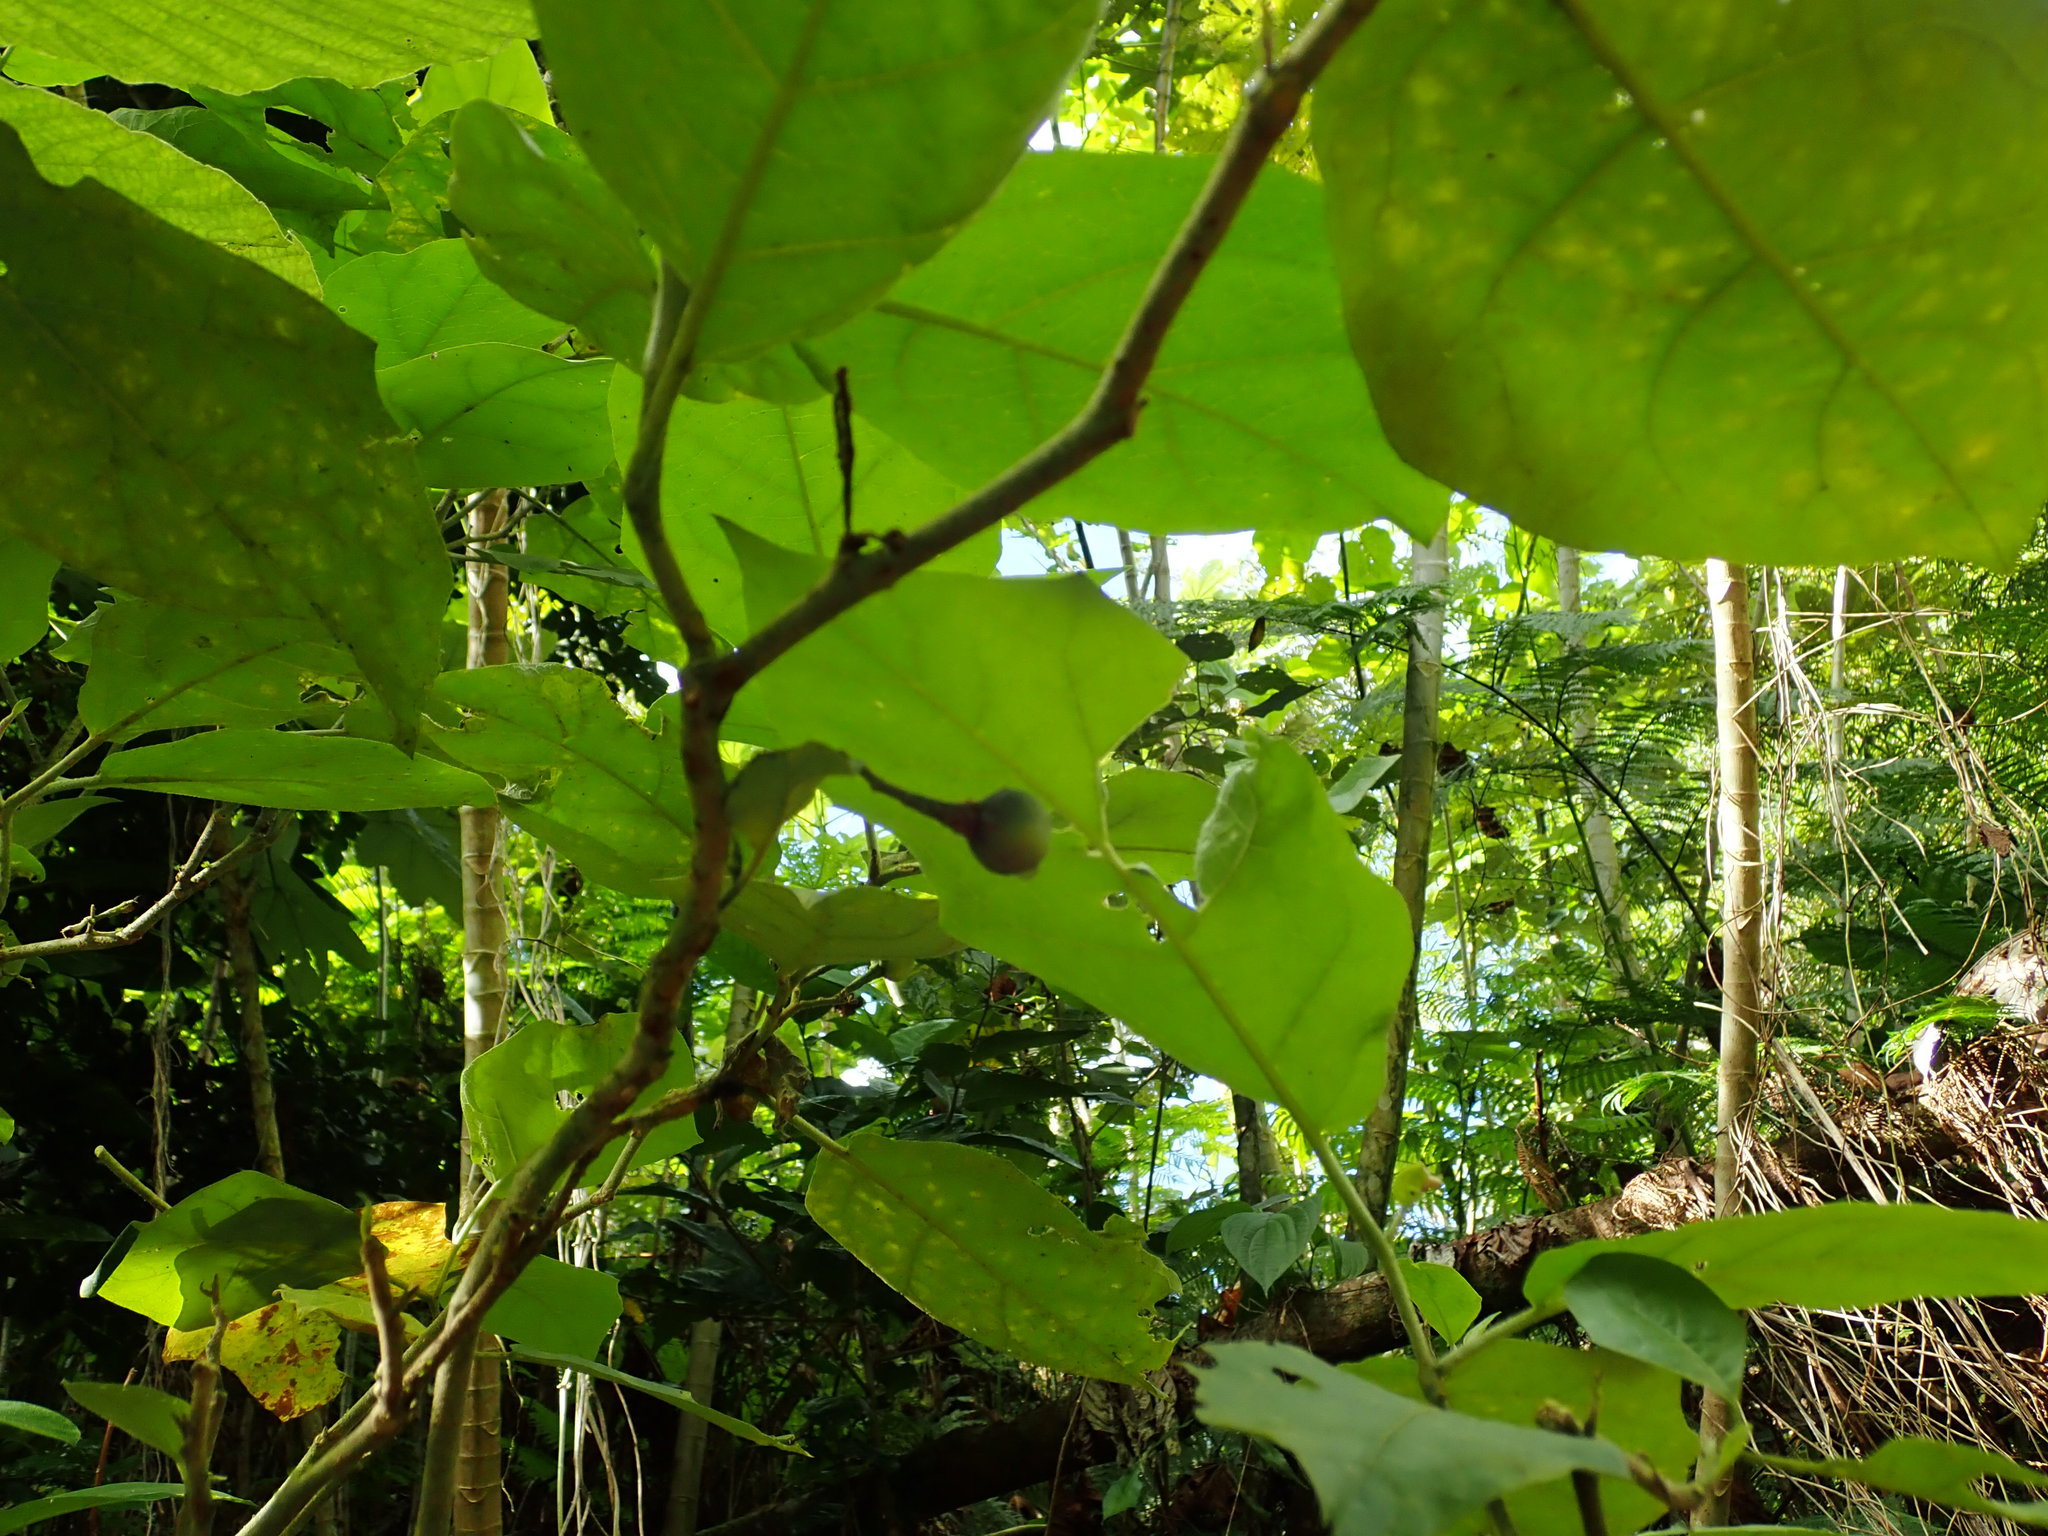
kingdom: Plantae
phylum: Tracheophyta
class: Magnoliopsida
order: Solanales
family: Solanaceae
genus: Solanum
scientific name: Solanum torvum
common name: Turkey berry
